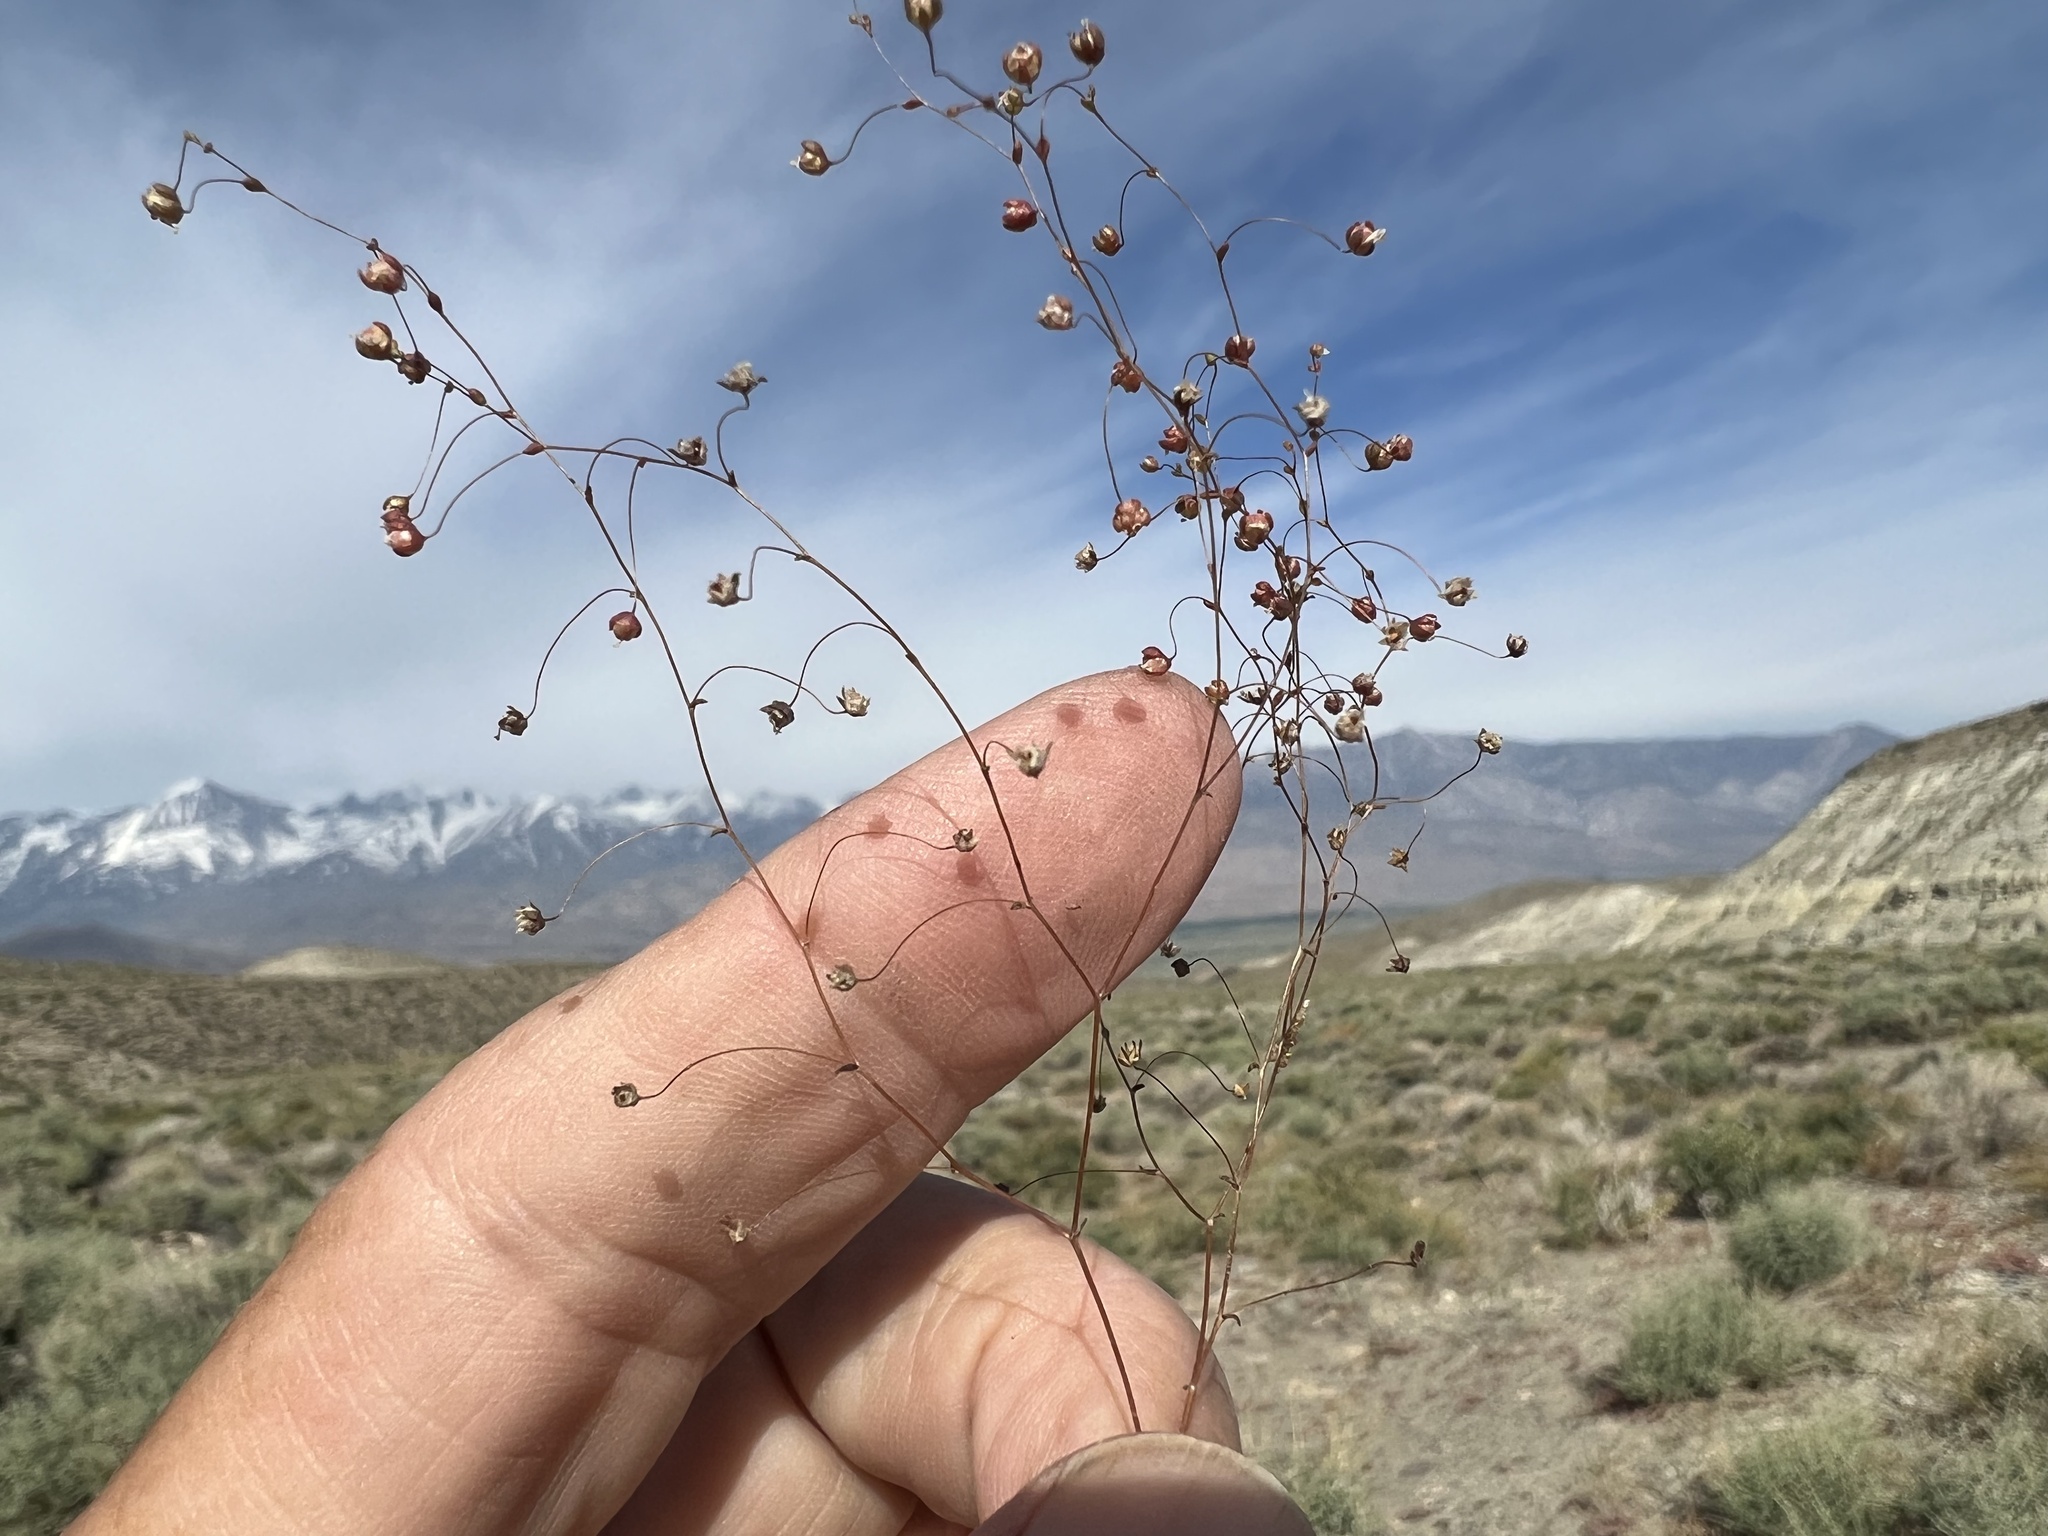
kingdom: Plantae
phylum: Tracheophyta
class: Magnoliopsida
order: Asterales
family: Campanulaceae
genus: Nemacladus
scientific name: Nemacladus morefieldii
